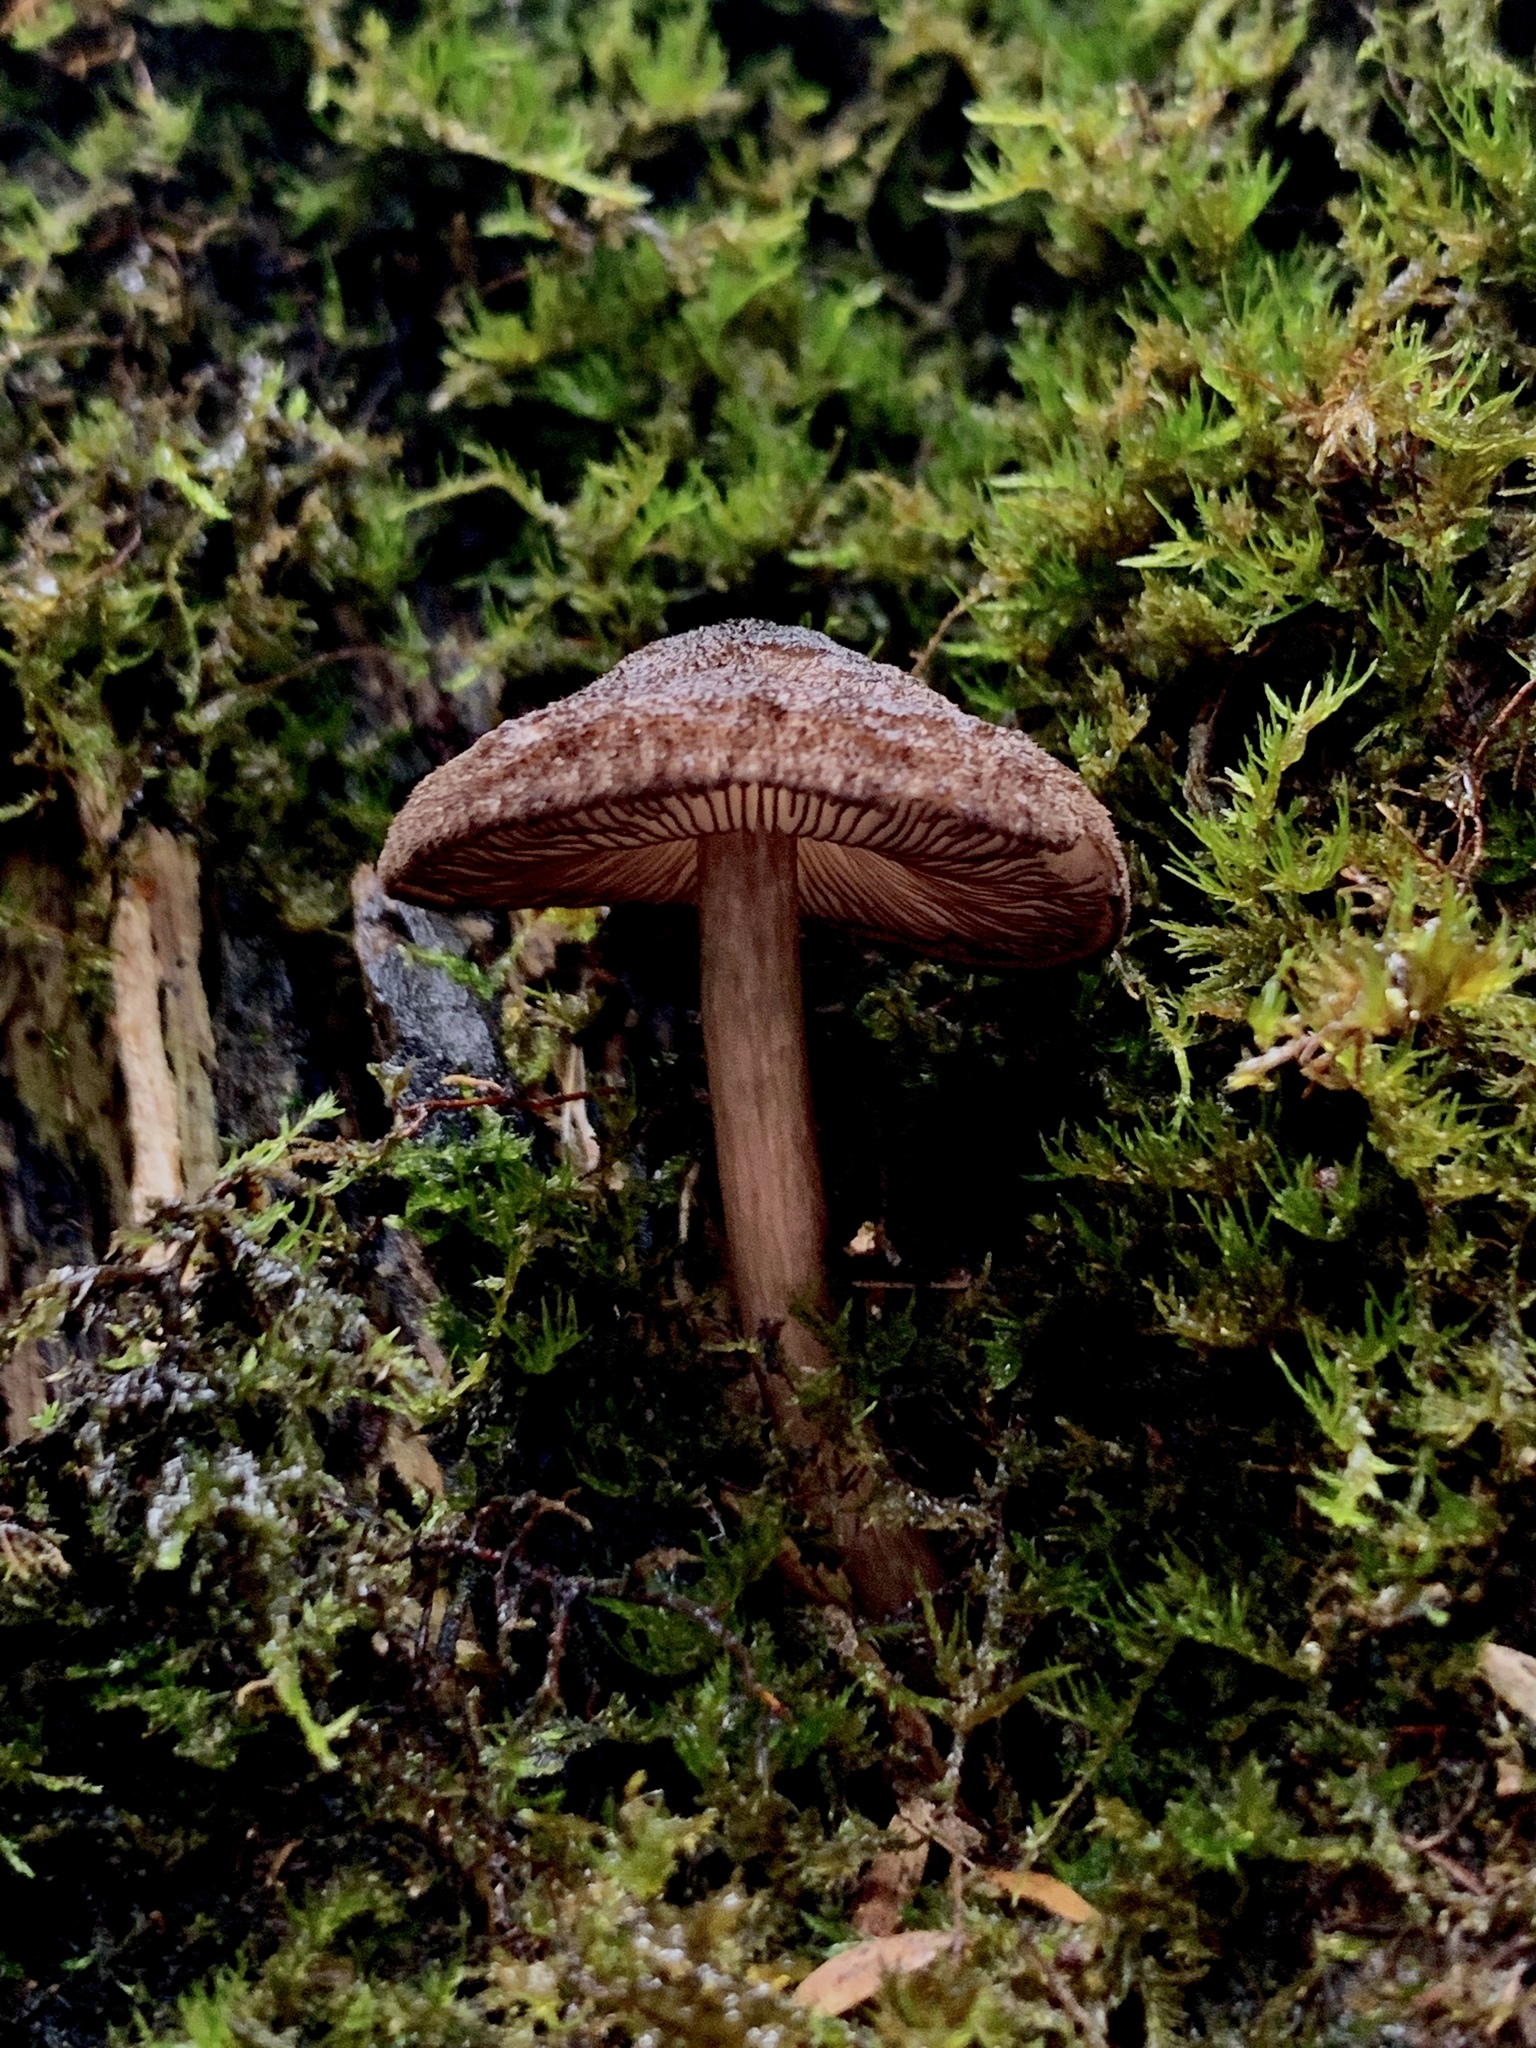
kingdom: Fungi
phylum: Basidiomycota
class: Agaricomycetes
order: Agaricales
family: Pluteaceae
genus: Pluteus
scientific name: Pluteus atromarginatus
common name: Blackedged shield
